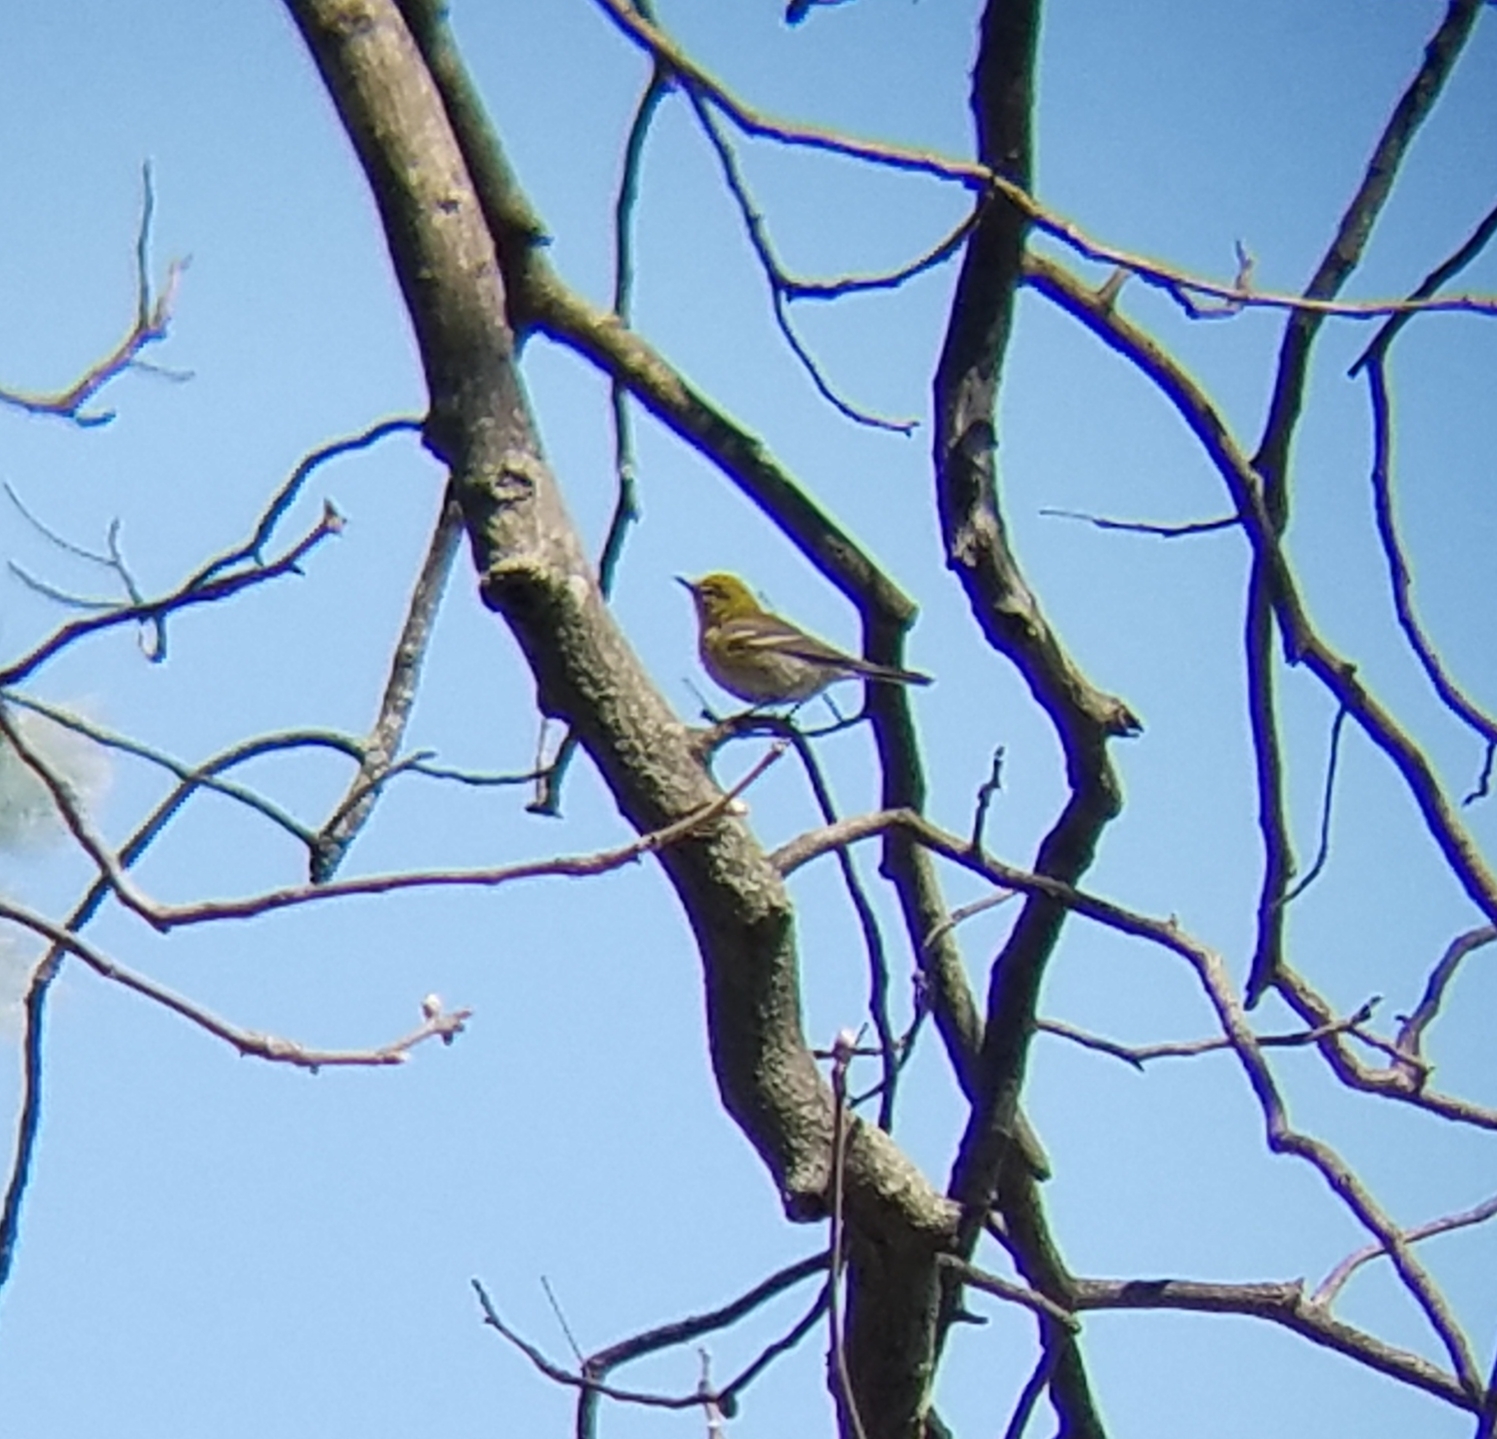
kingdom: Animalia
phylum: Chordata
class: Aves
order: Passeriformes
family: Parulidae
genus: Setophaga
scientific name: Setophaga pinus
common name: Pine warbler
